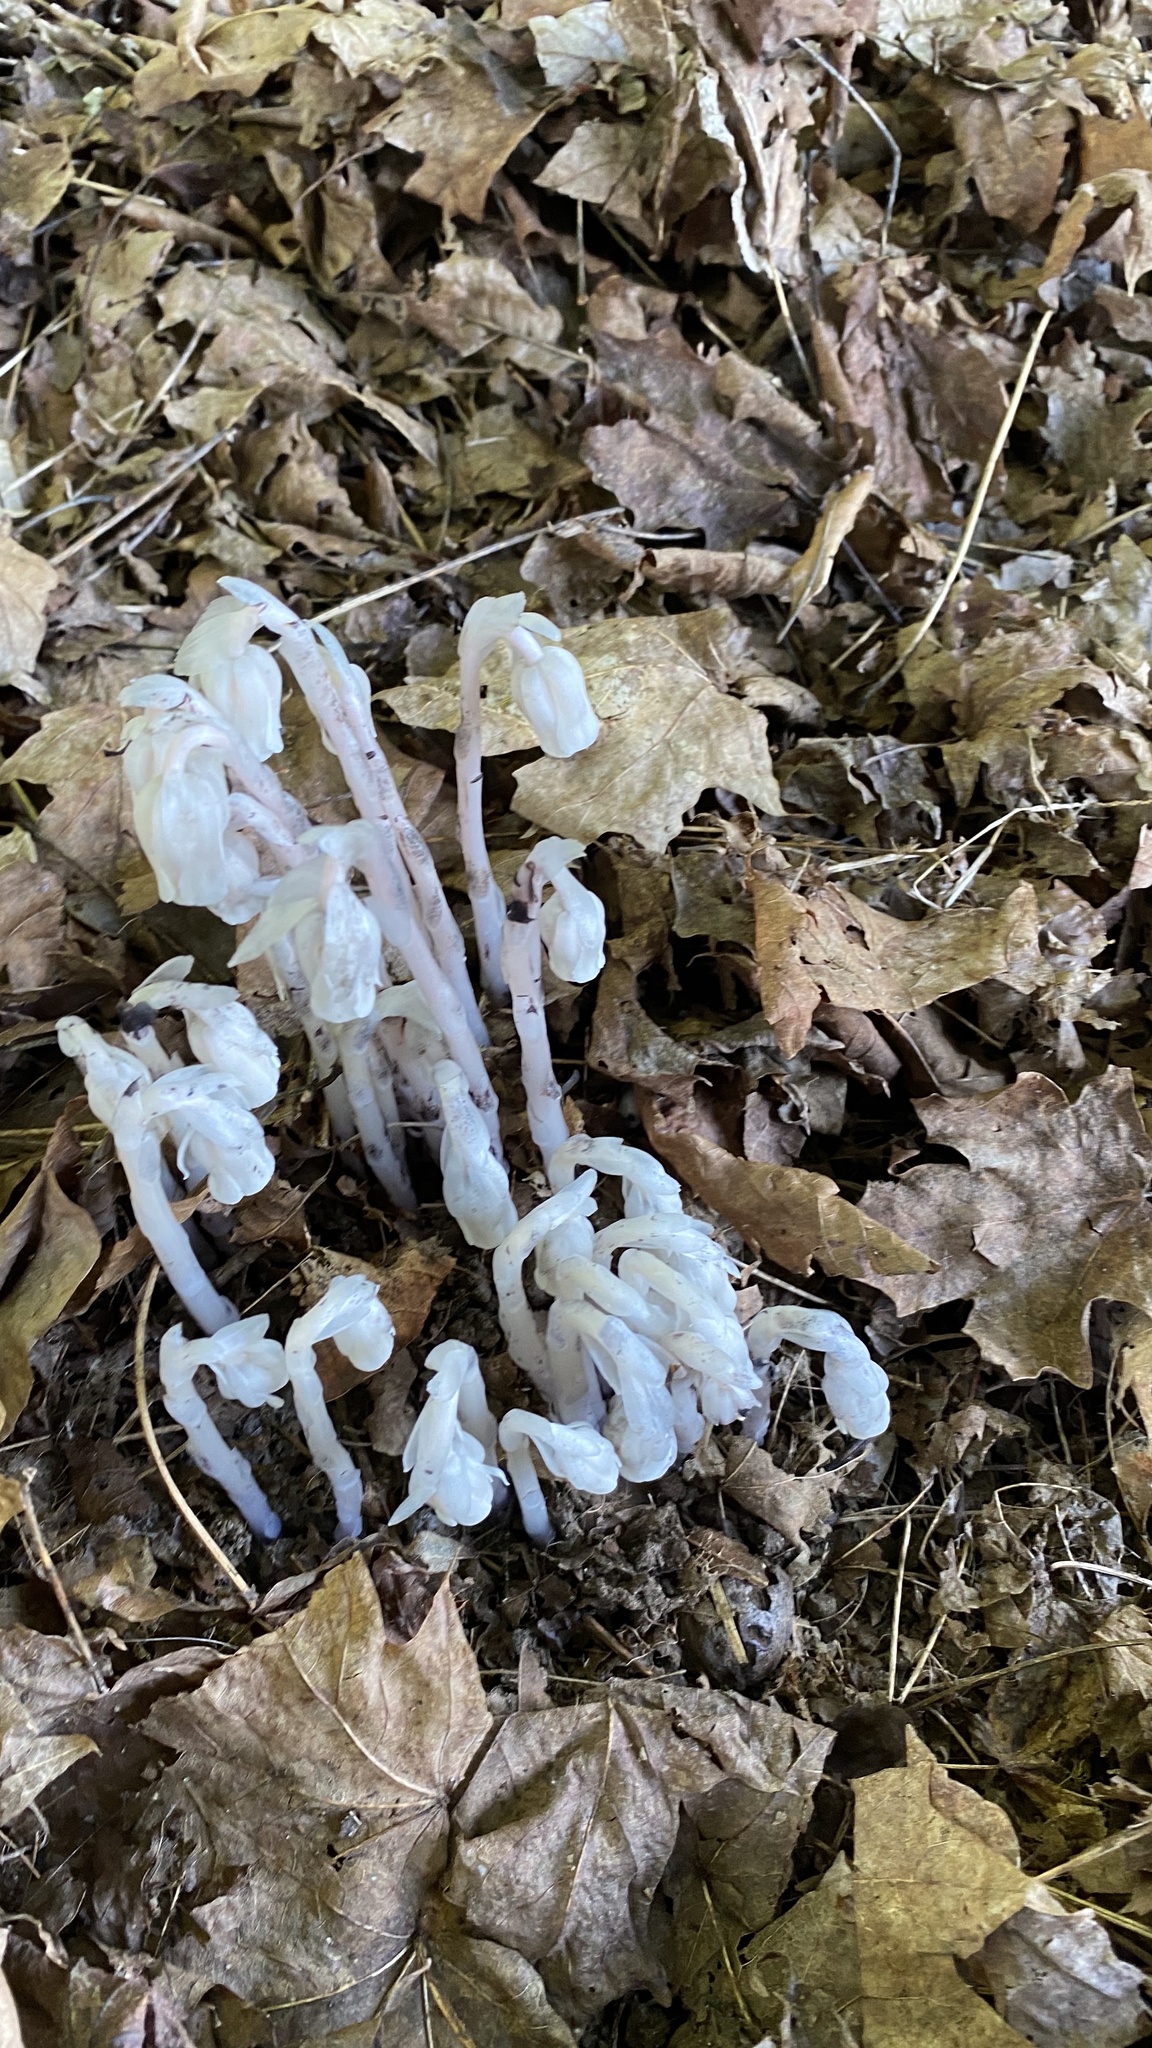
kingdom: Plantae
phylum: Tracheophyta
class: Magnoliopsida
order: Ericales
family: Ericaceae
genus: Monotropa
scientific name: Monotropa uniflora
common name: Convulsion root
